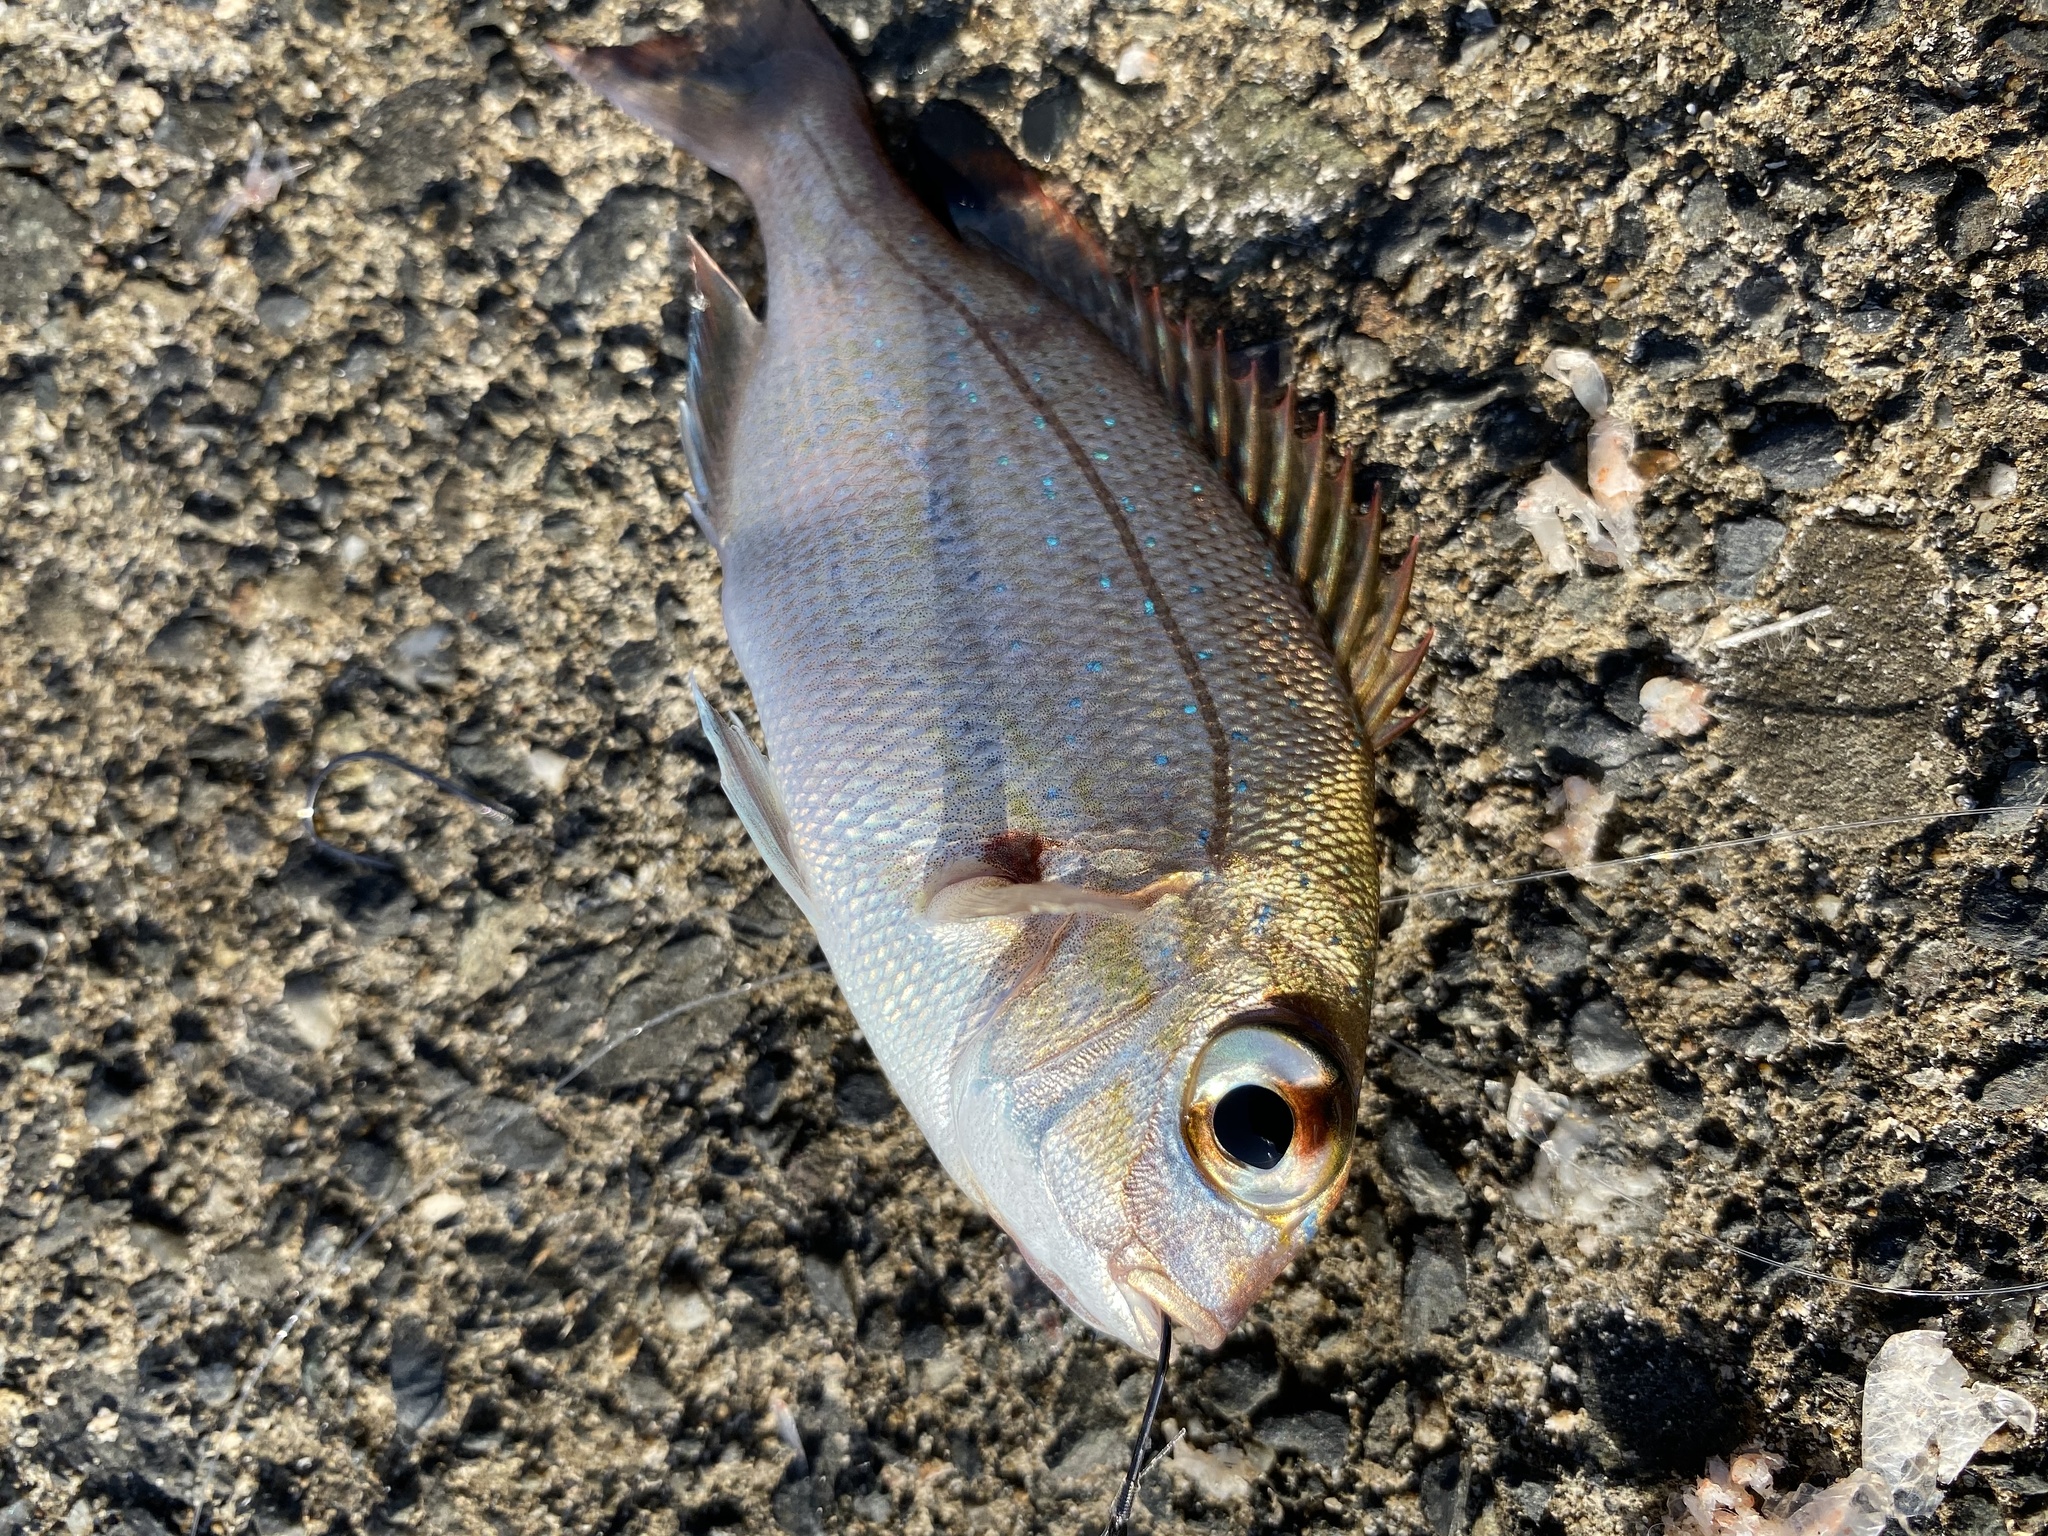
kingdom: Animalia
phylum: Chordata
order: Perciformes
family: Sparidae
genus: Pagrus
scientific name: Pagrus major
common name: Red sea bream
